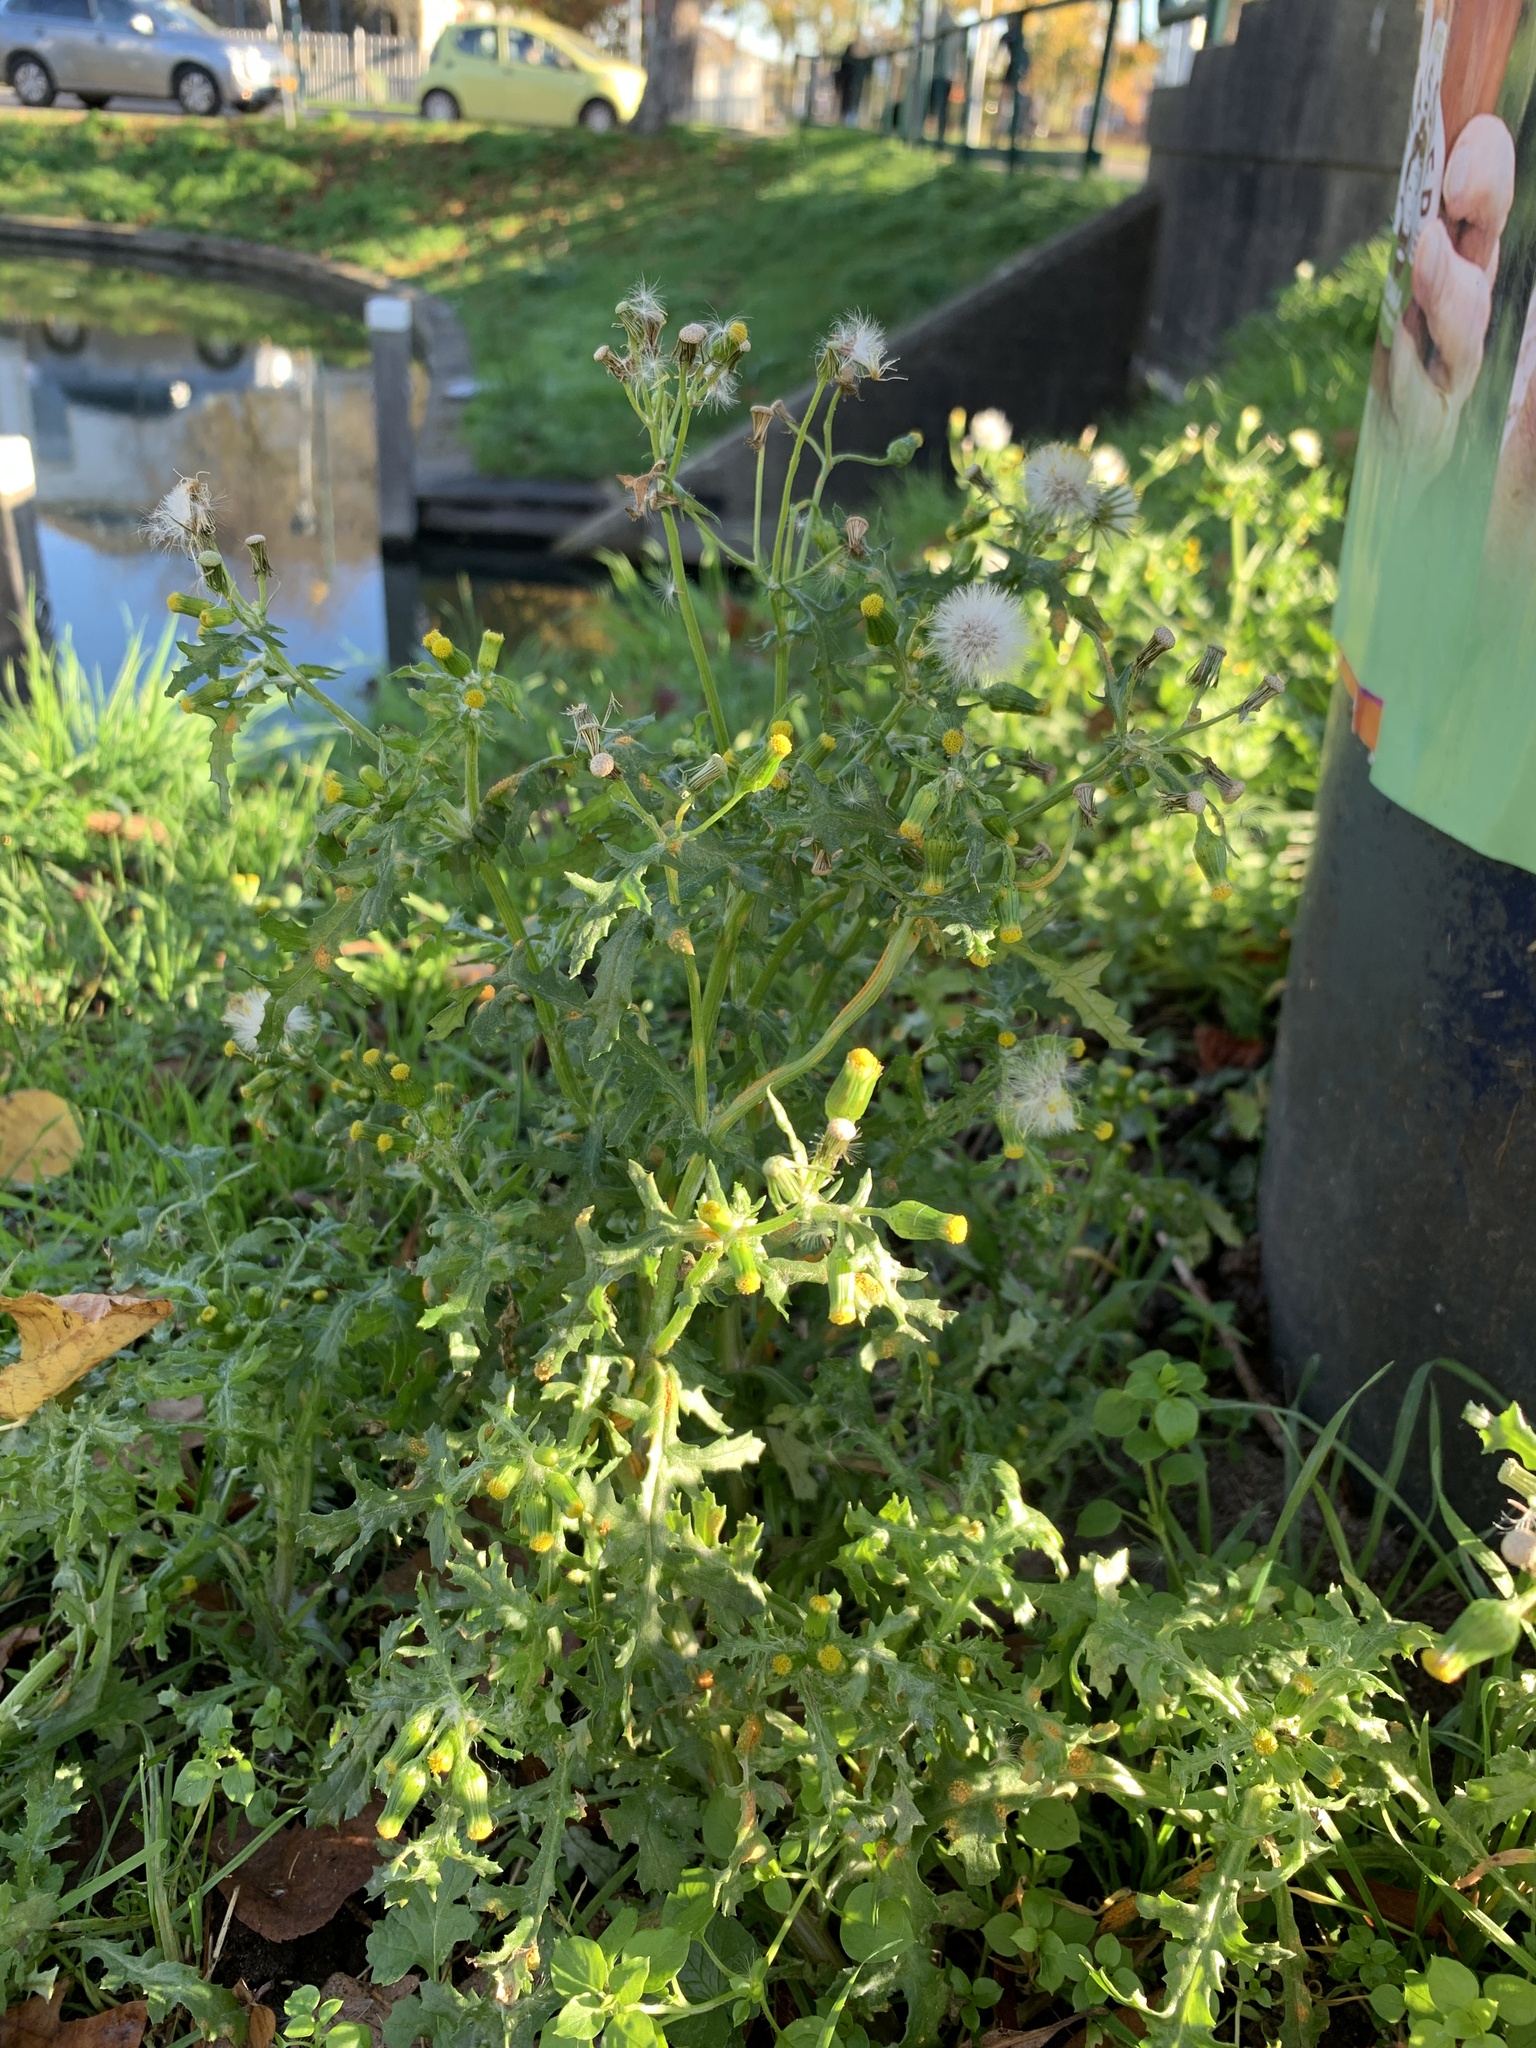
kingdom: Plantae
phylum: Tracheophyta
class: Magnoliopsida
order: Asterales
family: Asteraceae
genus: Senecio
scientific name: Senecio vulgaris
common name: Old-man-in-the-spring
